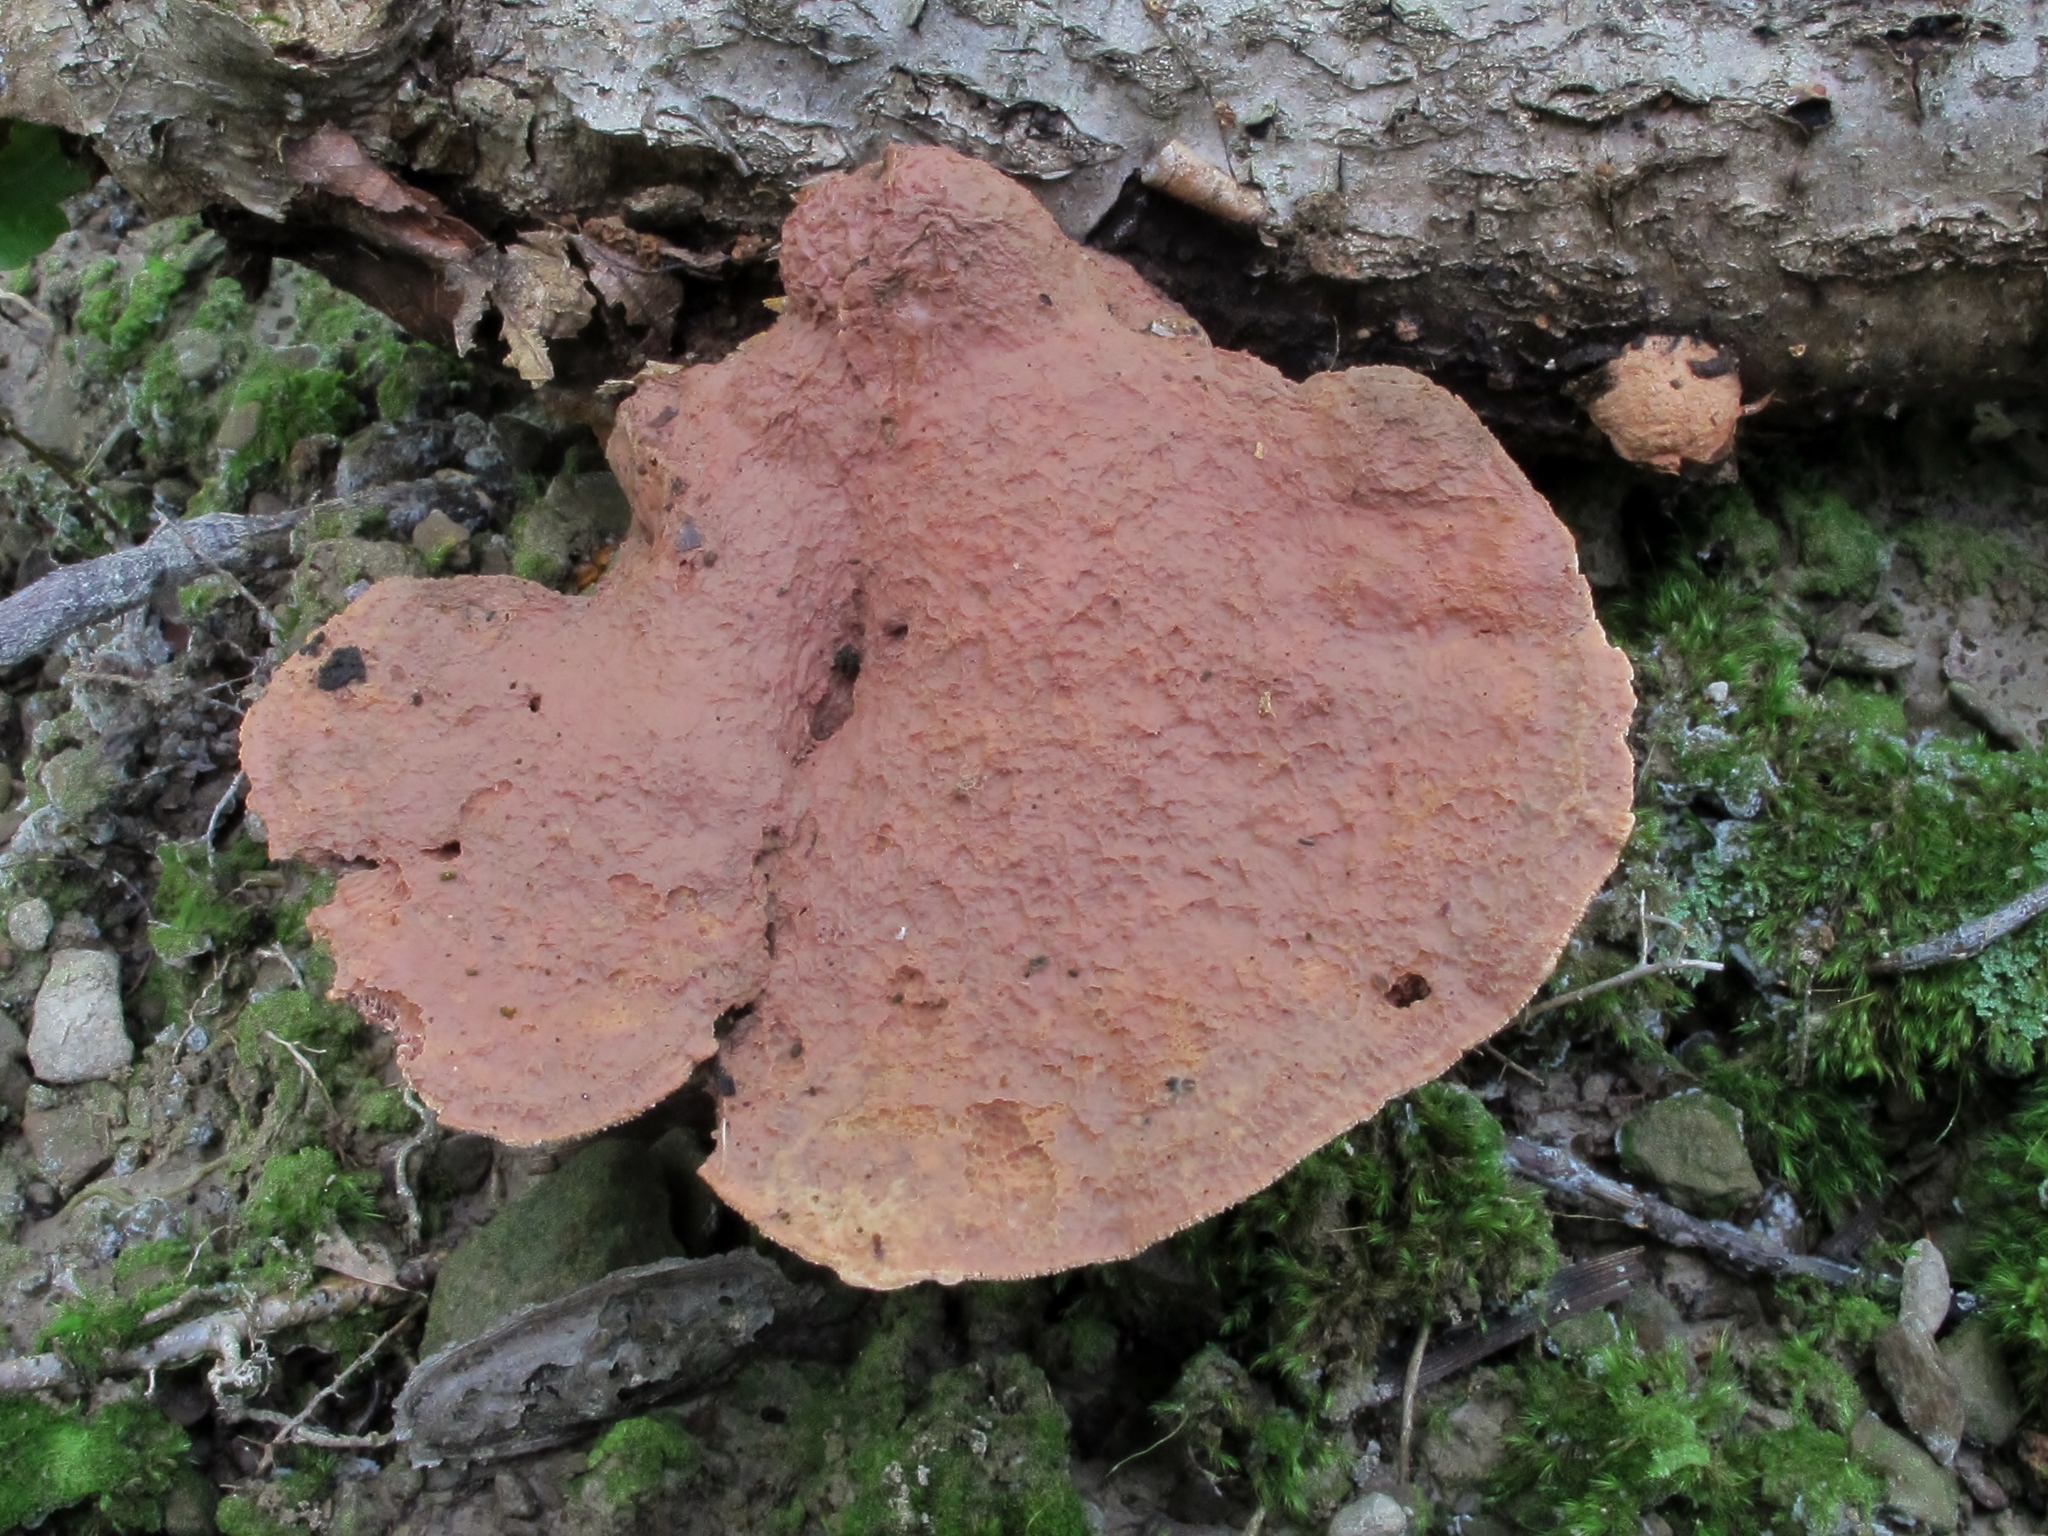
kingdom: Fungi
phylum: Basidiomycota
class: Agaricomycetes
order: Polyporales
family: Phanerochaetaceae
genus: Hapalopilus
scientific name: Hapalopilus rutilans
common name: Tender nesting polypore
